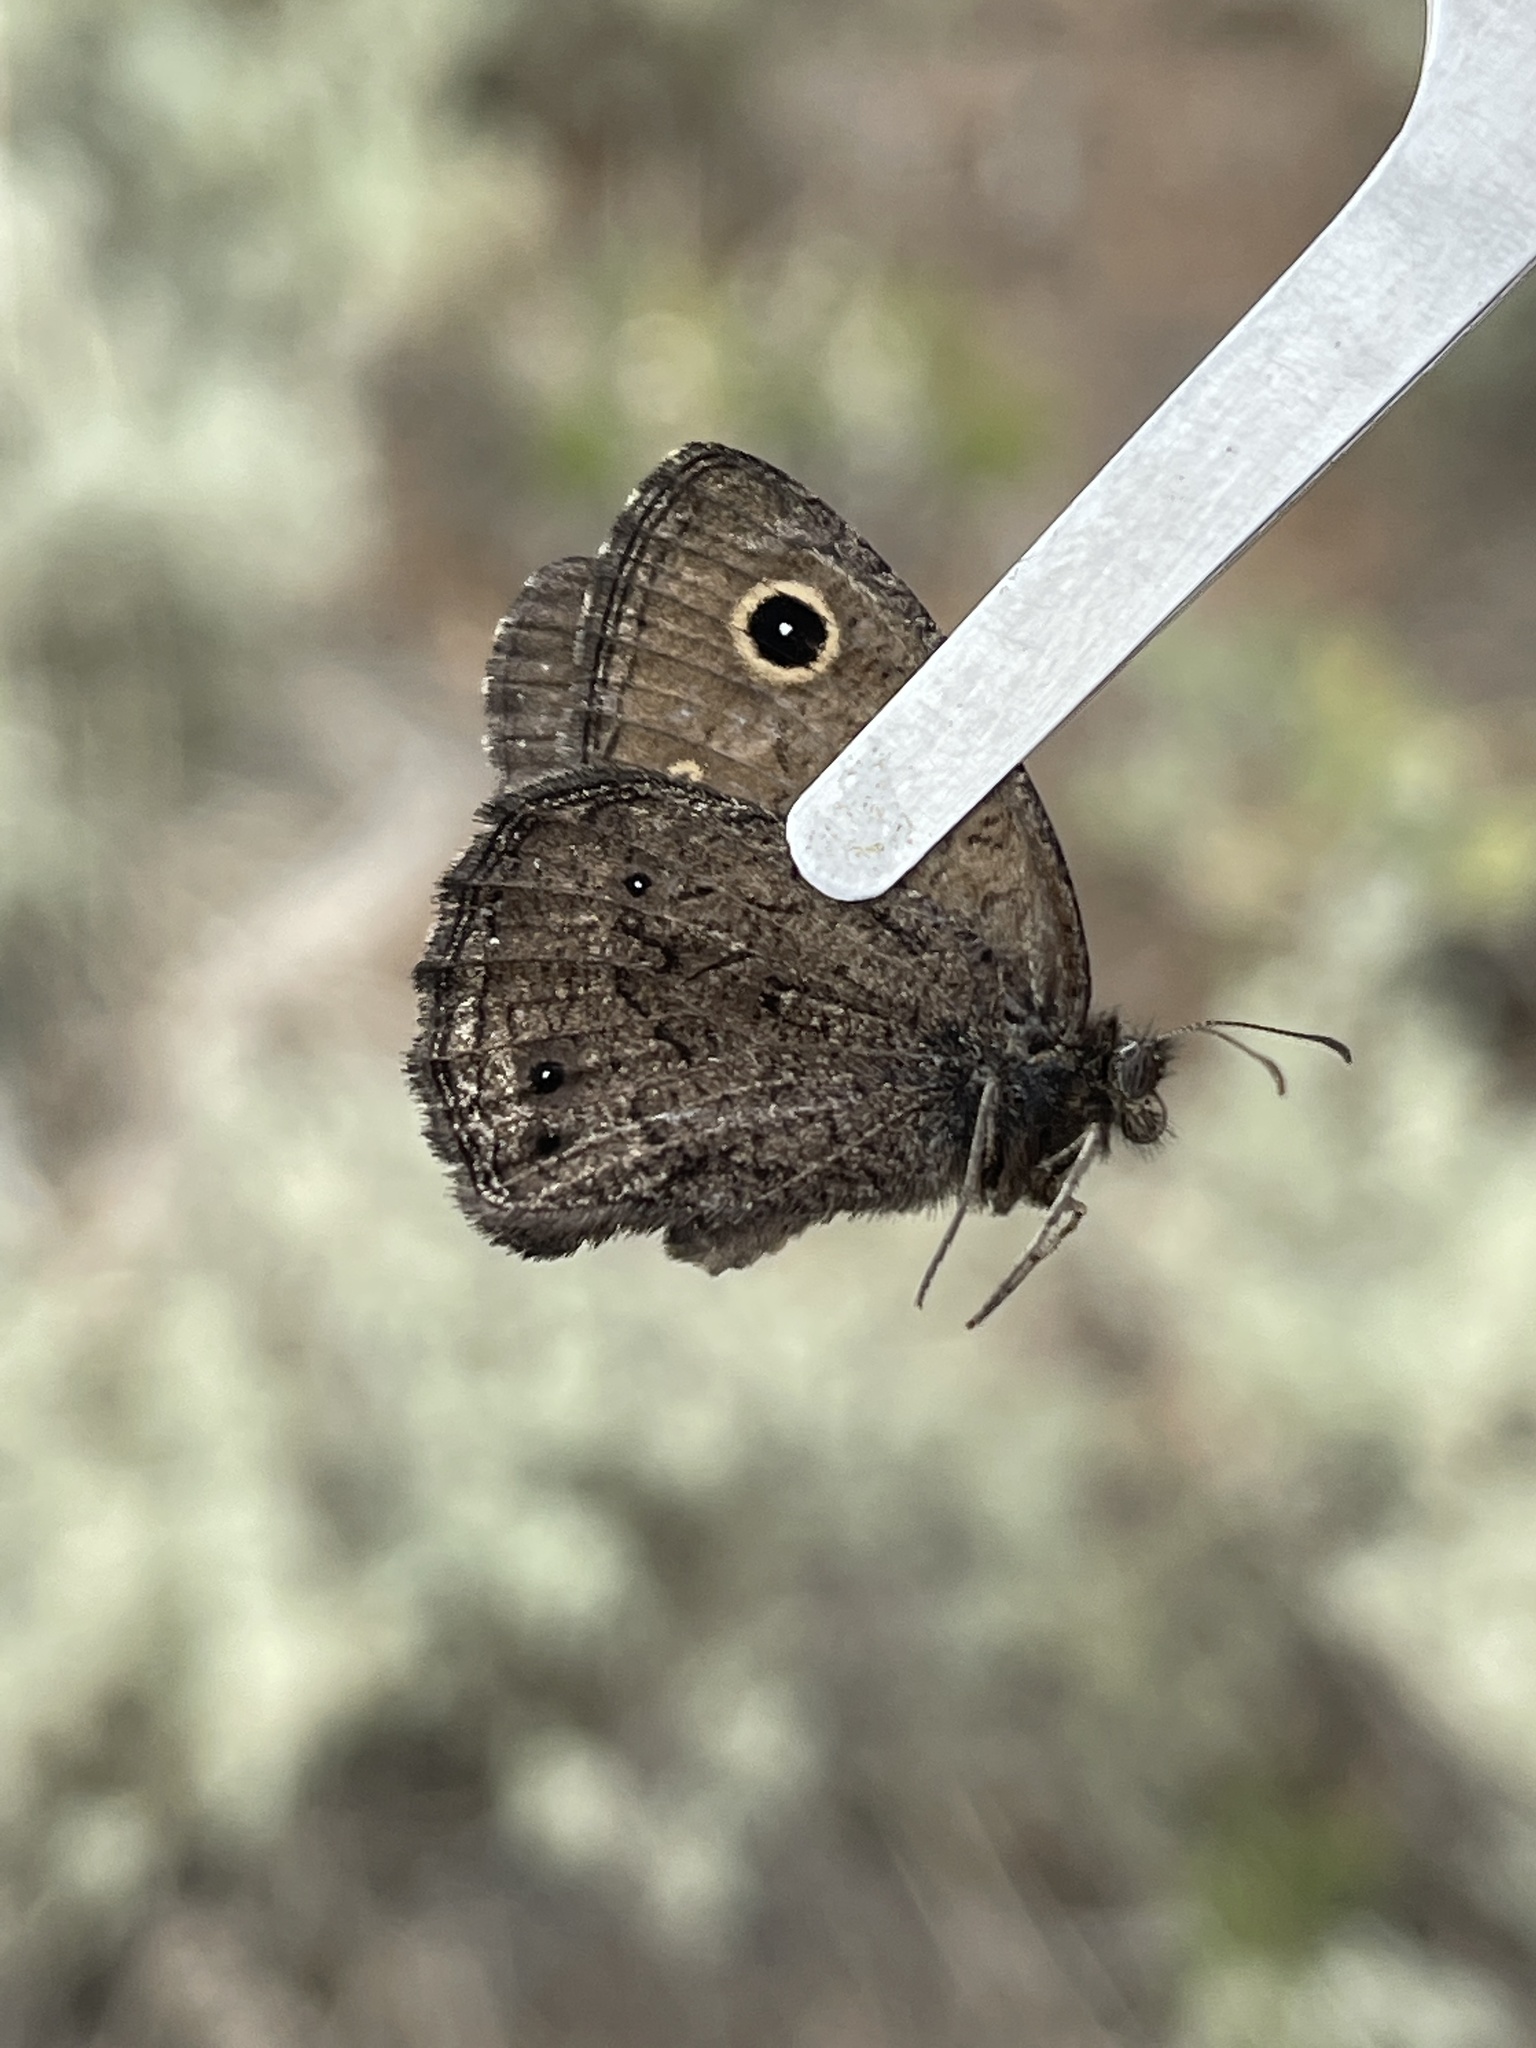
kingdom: Animalia
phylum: Arthropoda
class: Insecta
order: Lepidoptera
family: Nymphalidae
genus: Cercyonis
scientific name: Cercyonis oetus
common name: Small wood-nymph
